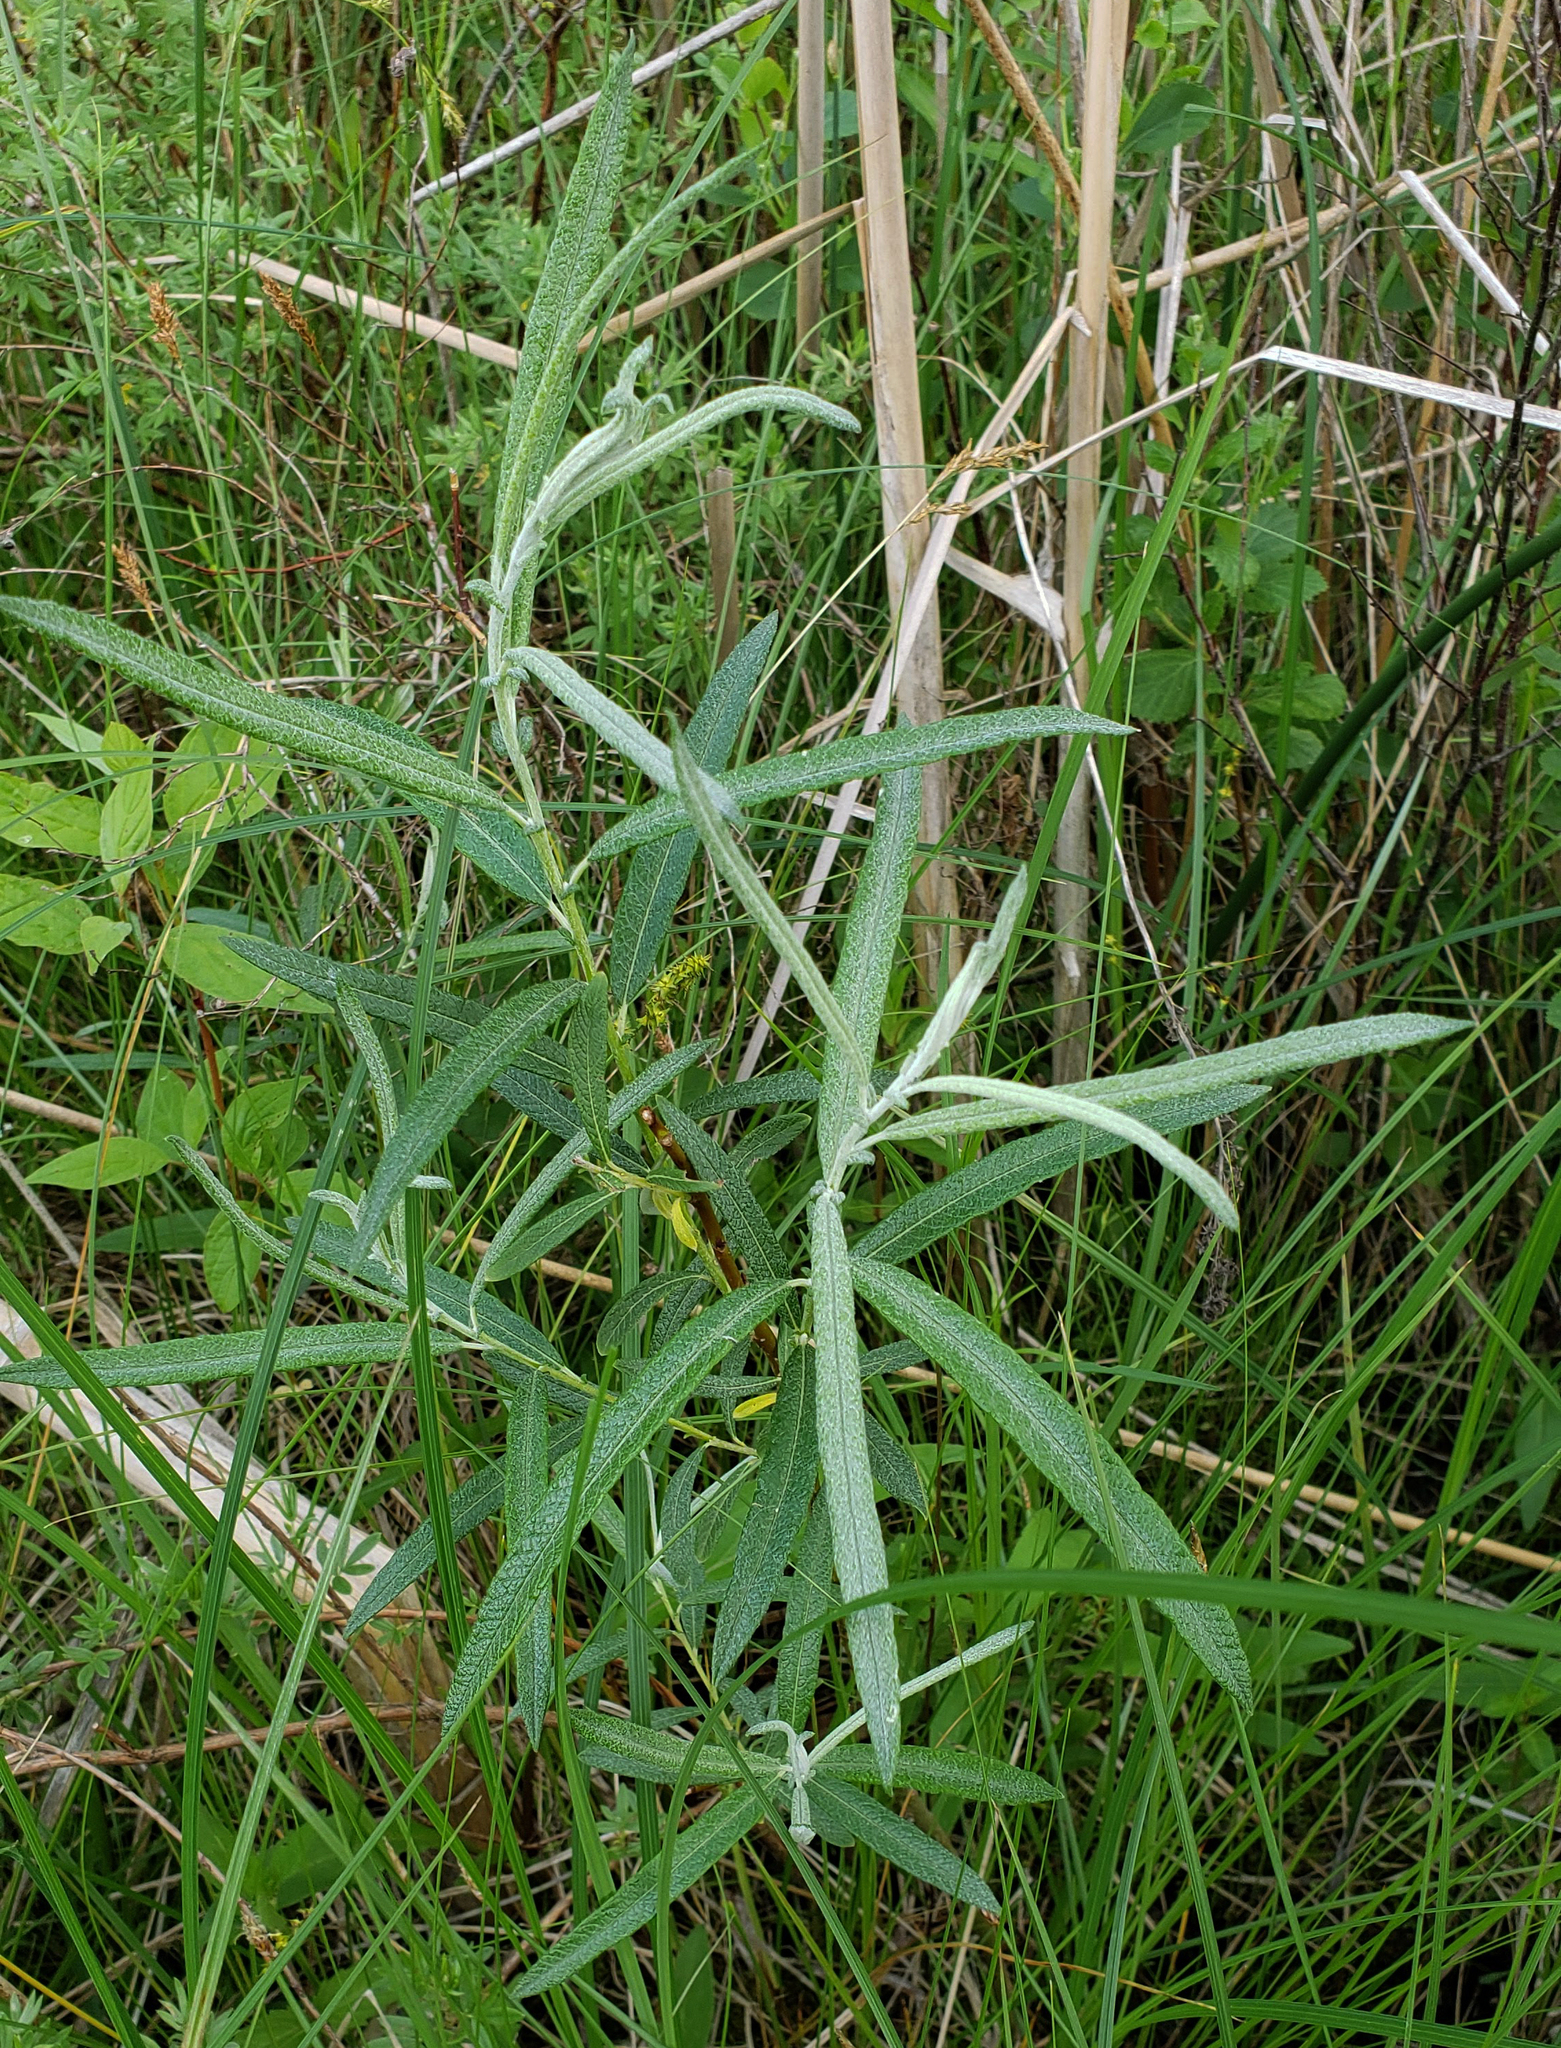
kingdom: Plantae
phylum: Tracheophyta
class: Magnoliopsida
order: Malpighiales
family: Salicaceae
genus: Salix
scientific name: Salix candida
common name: Hoary willow
